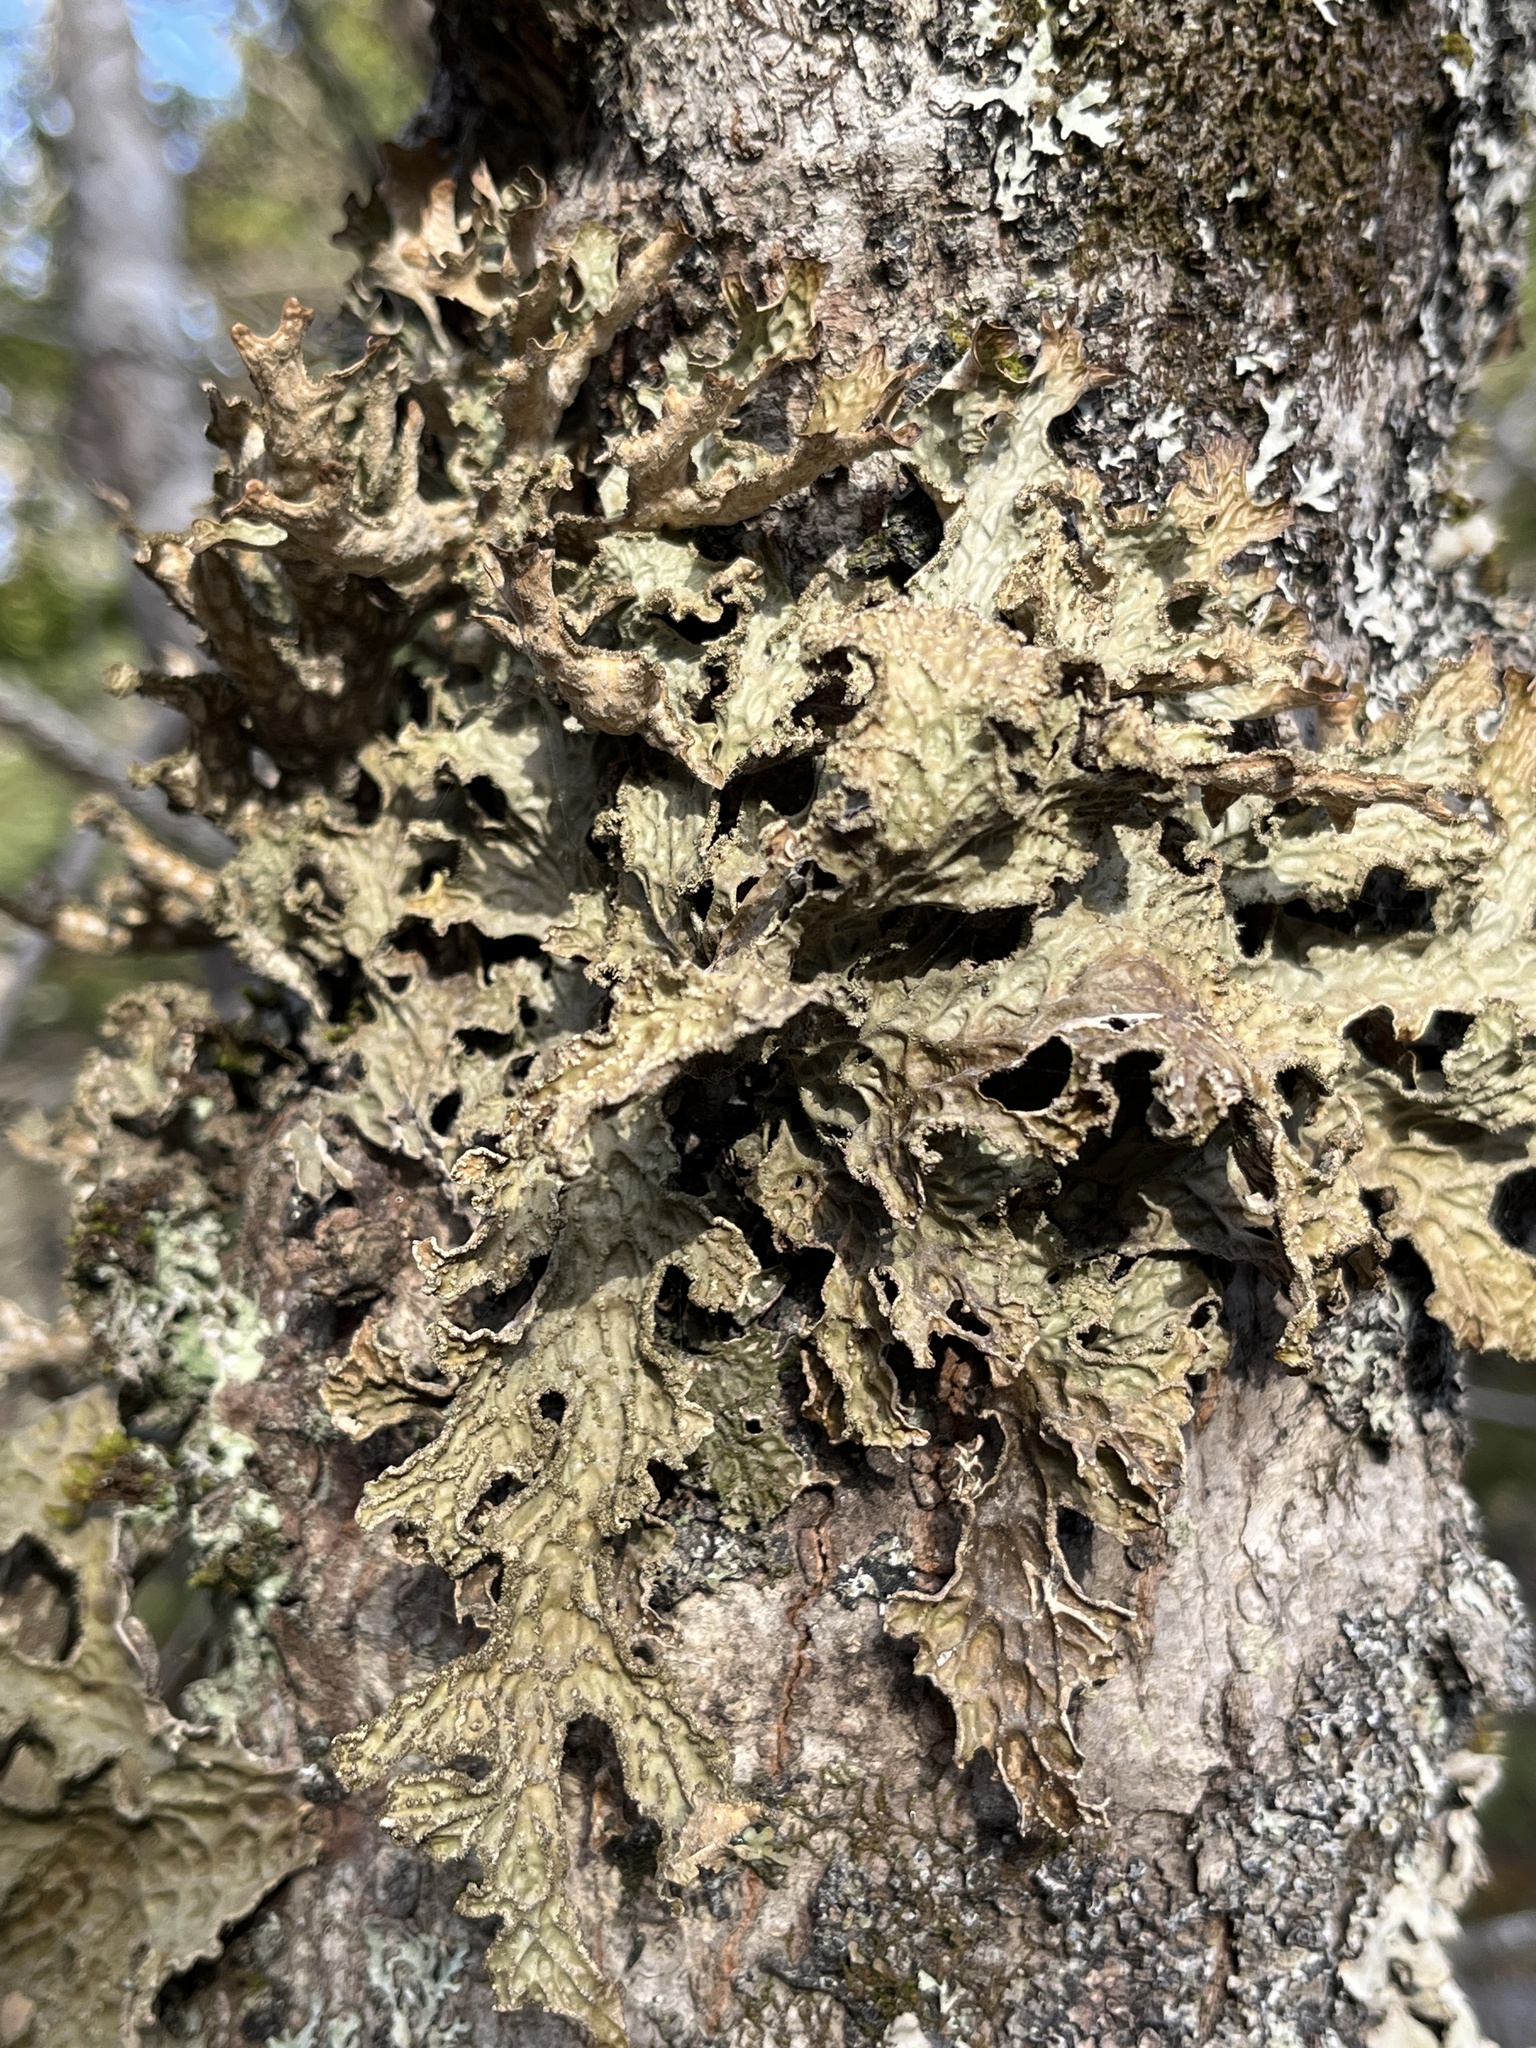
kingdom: Fungi
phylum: Ascomycota
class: Lecanoromycetes
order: Peltigerales
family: Lobariaceae
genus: Lobaria
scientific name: Lobaria pulmonaria
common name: Lungwort
